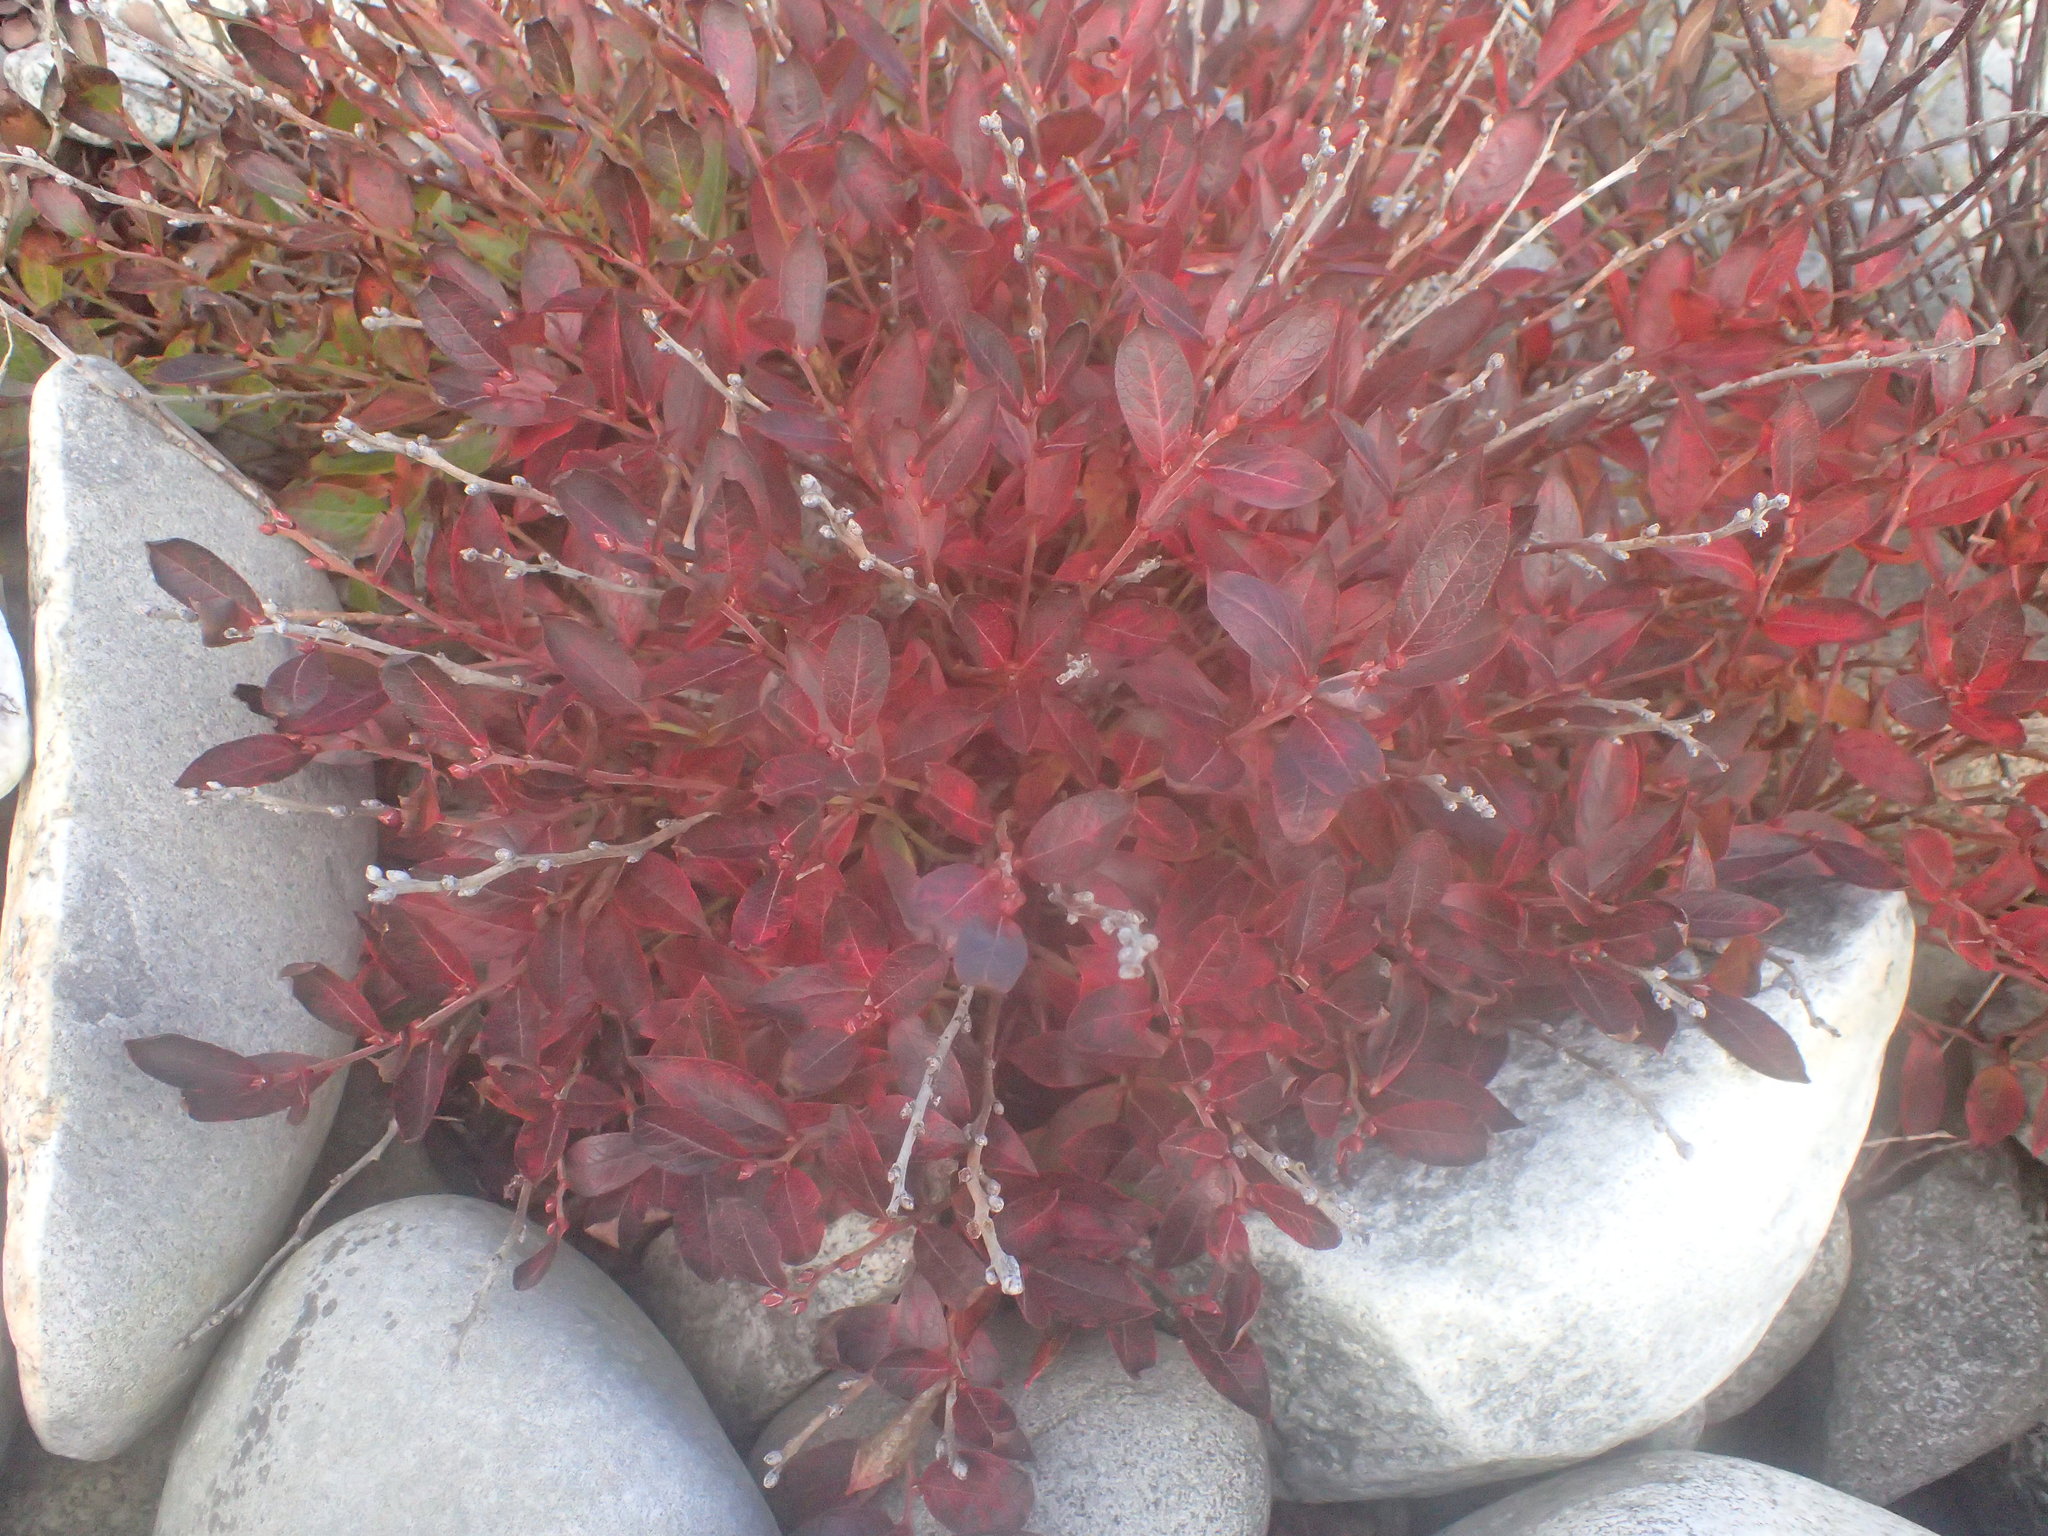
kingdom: Plantae
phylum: Tracheophyta
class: Magnoliopsida
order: Ericales
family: Ericaceae
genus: Vaccinium
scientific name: Vaccinium angustifolium
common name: Early lowbush blueberry
